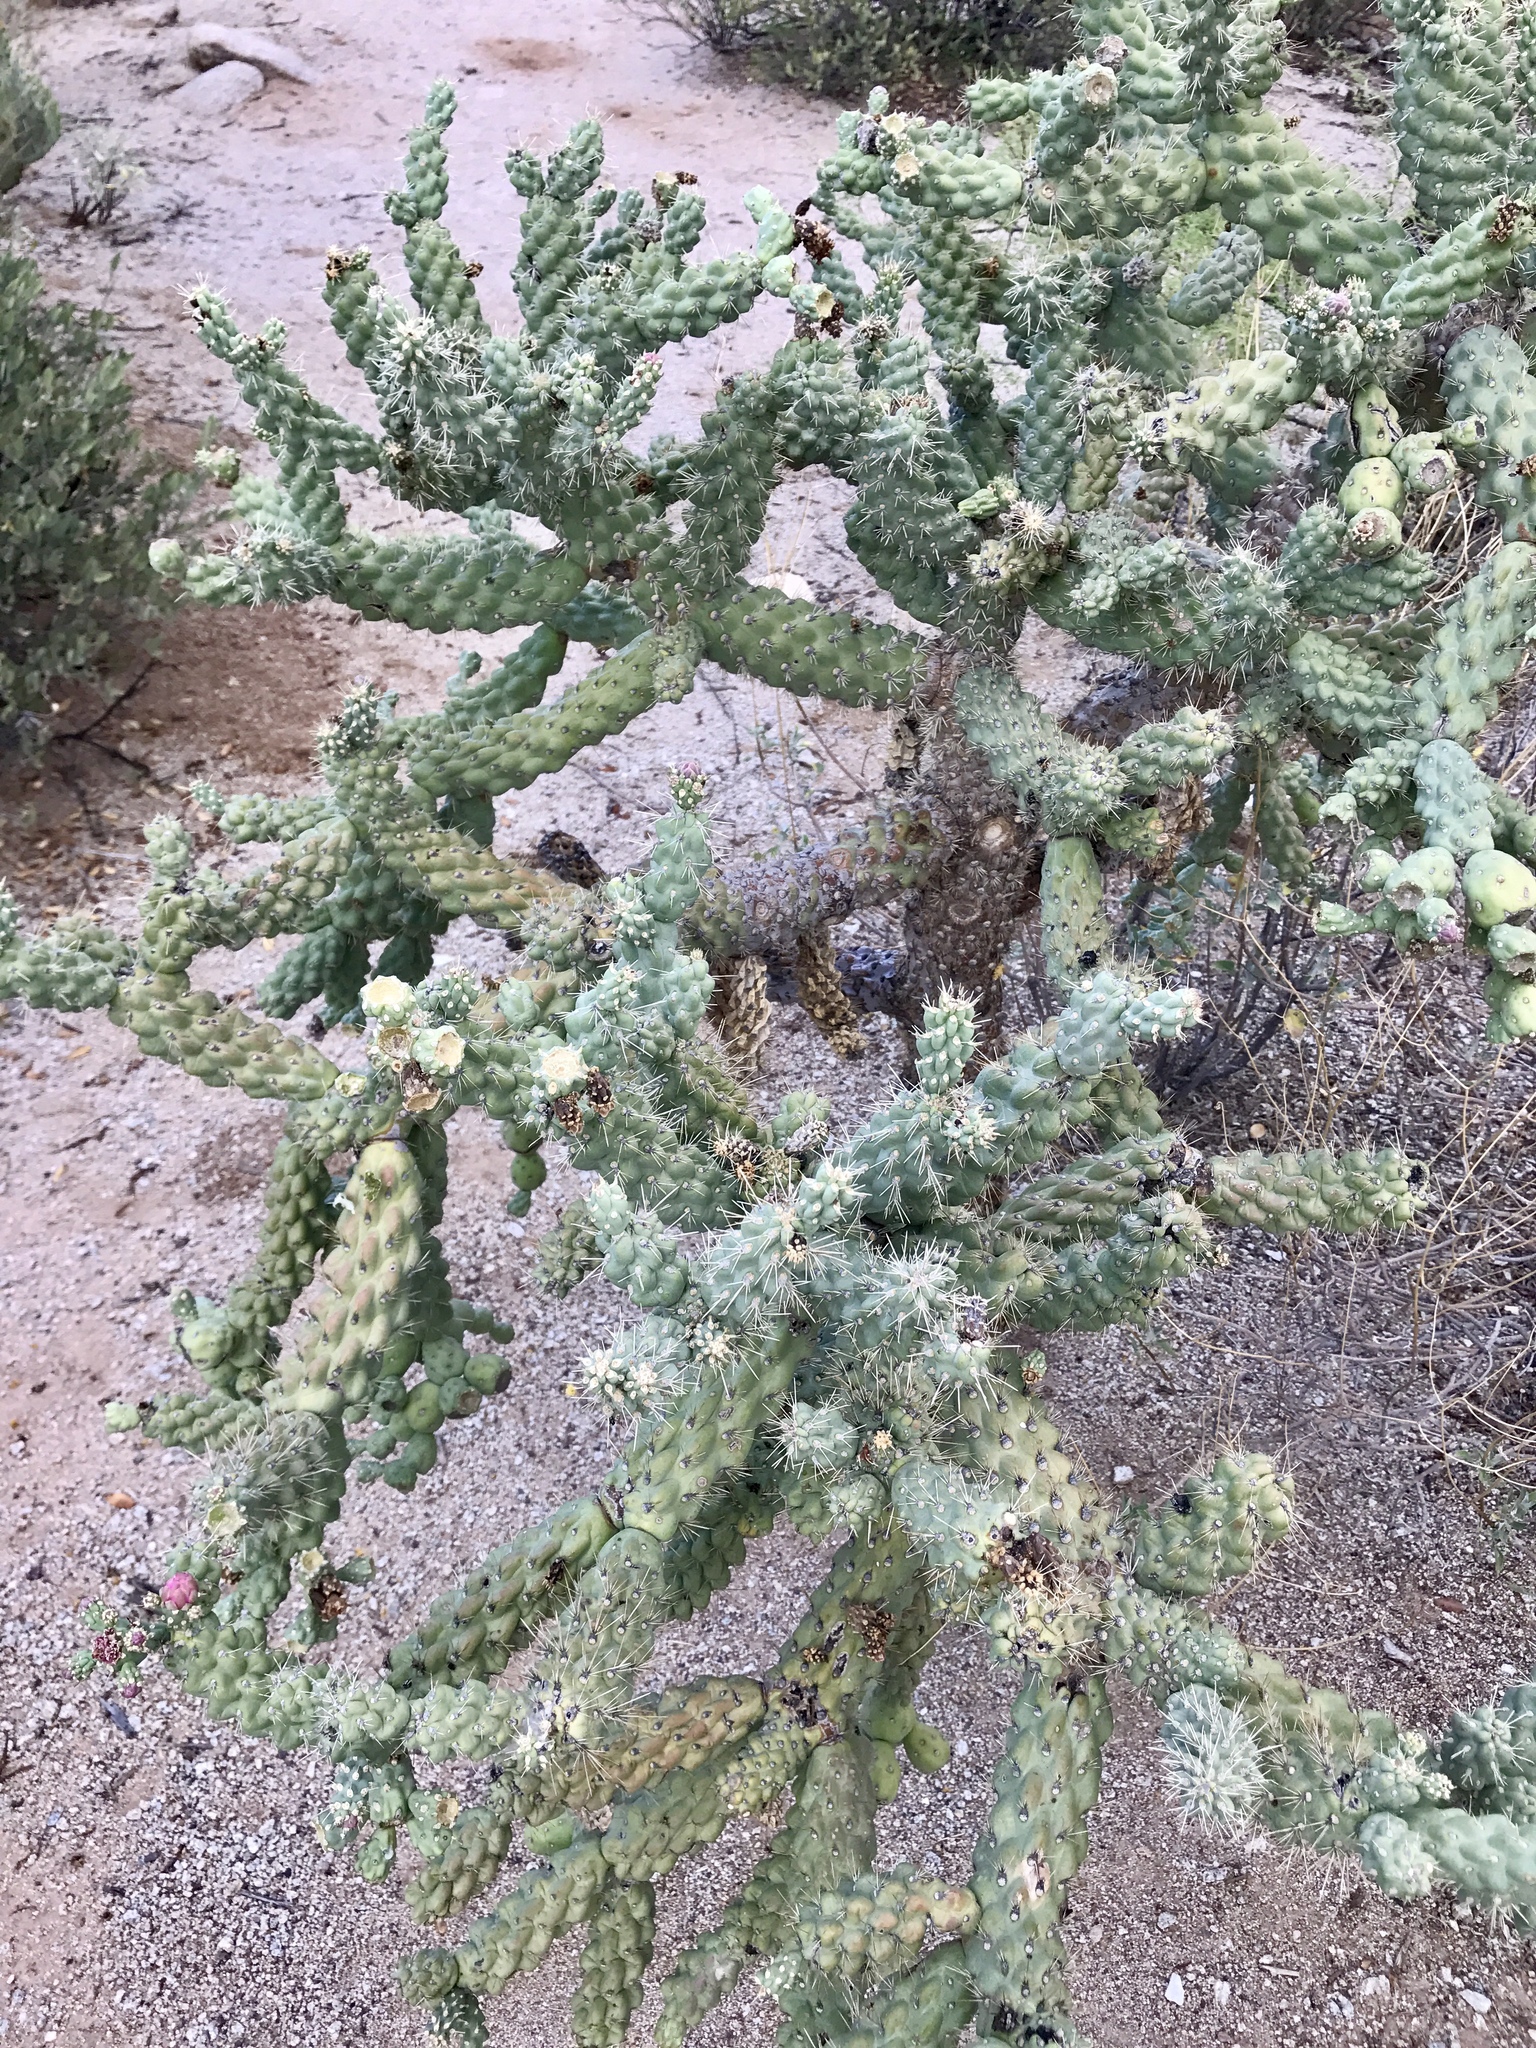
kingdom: Plantae
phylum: Tracheophyta
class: Magnoliopsida
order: Caryophyllales
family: Cactaceae
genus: Cylindropuntia
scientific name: Cylindropuntia fulgida
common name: Jumping cholla
